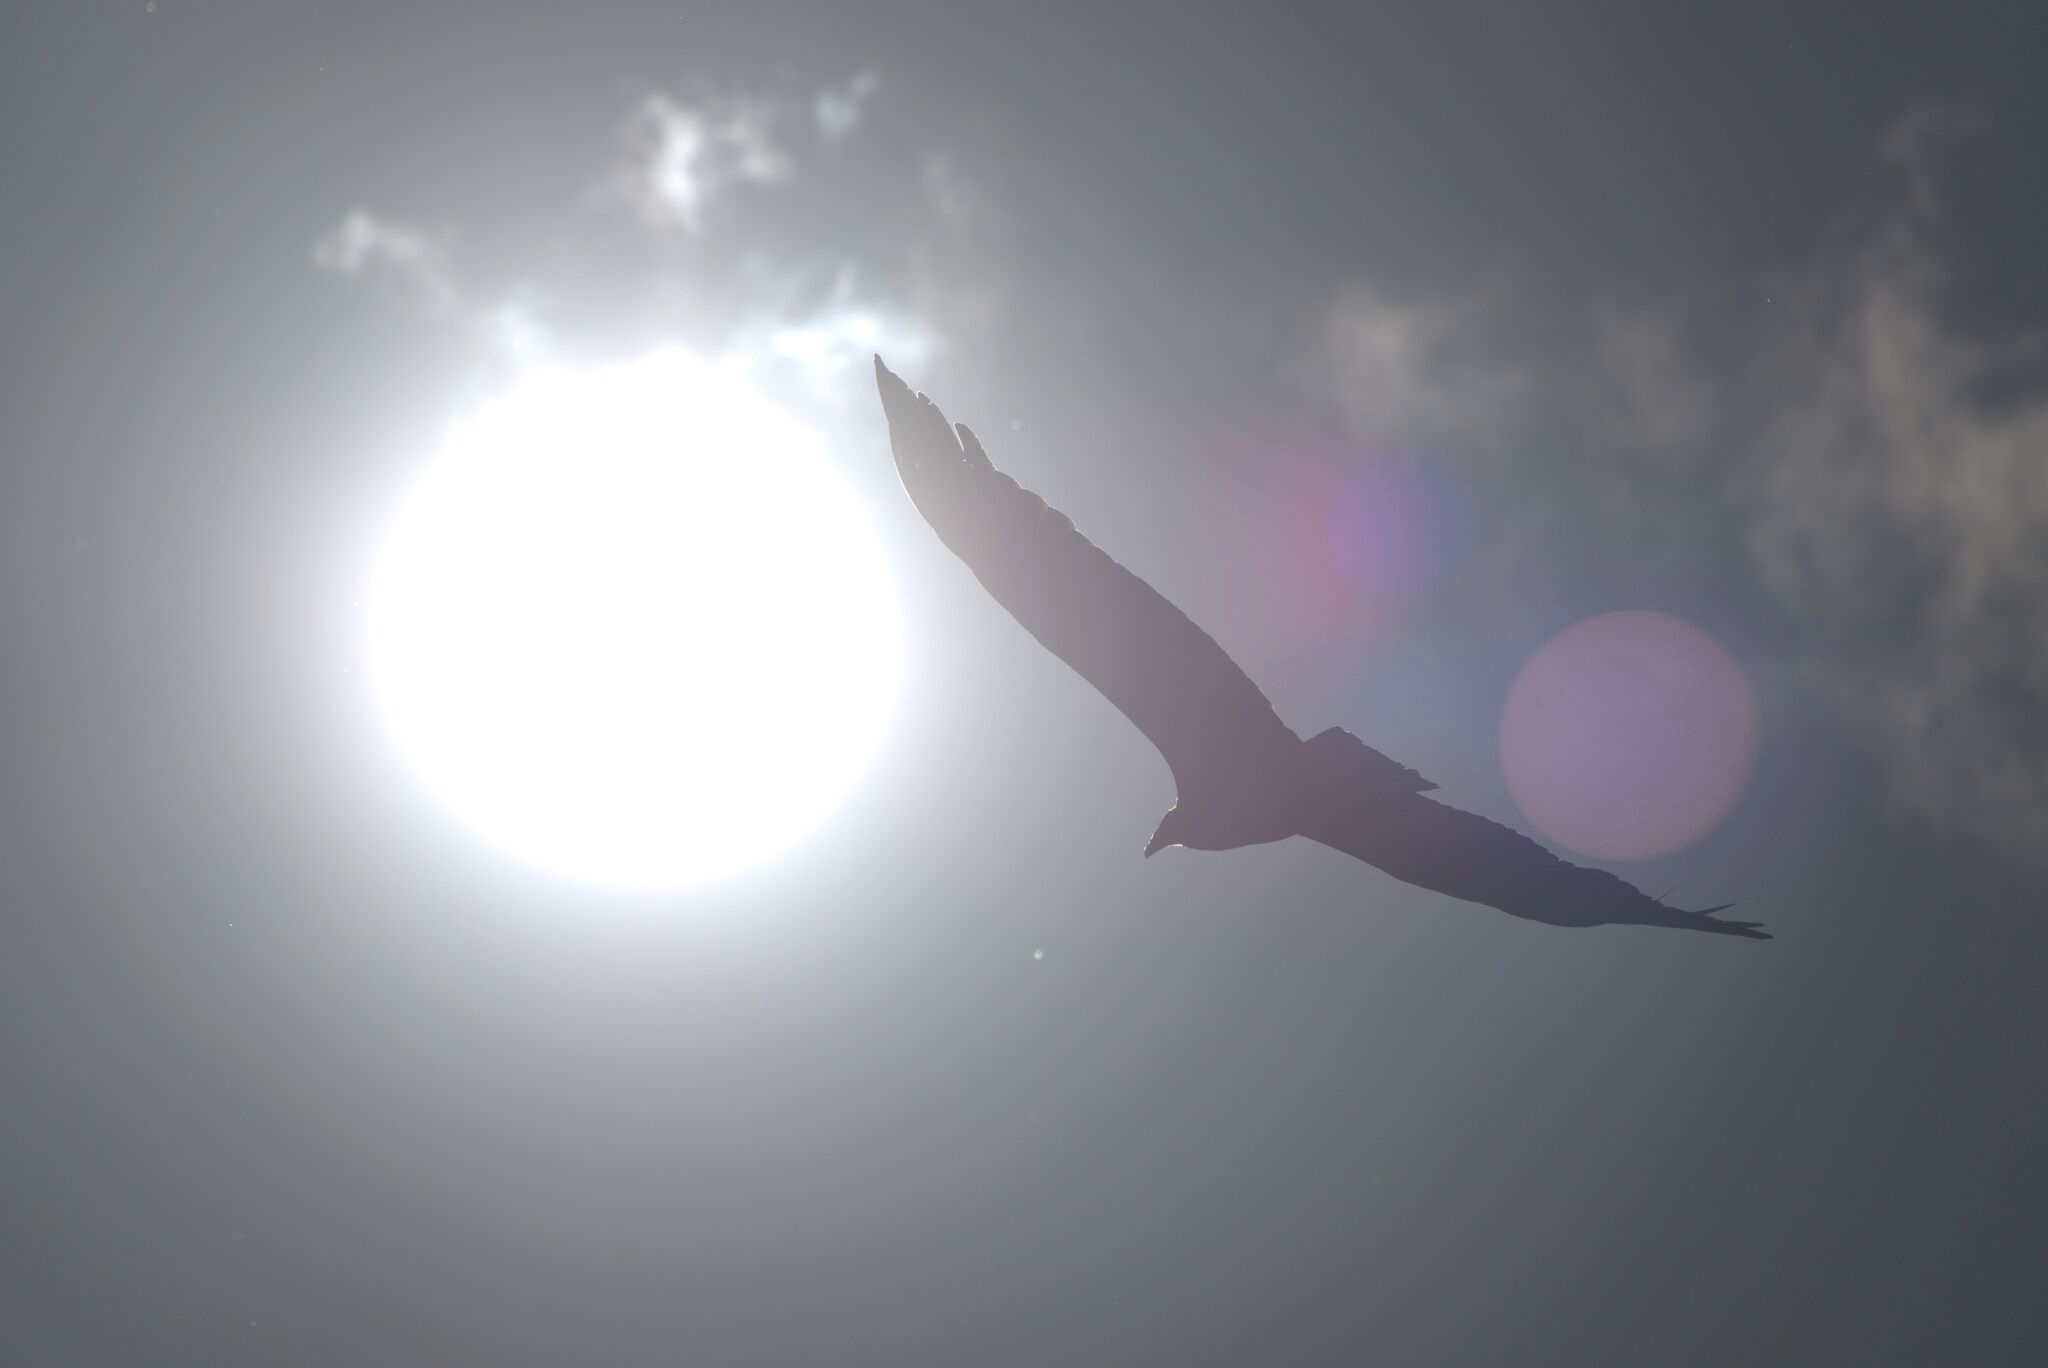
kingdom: Animalia
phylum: Chordata
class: Aves
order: Accipitriformes
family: Cathartidae
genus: Cathartes
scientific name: Cathartes aura
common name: Turkey vulture
